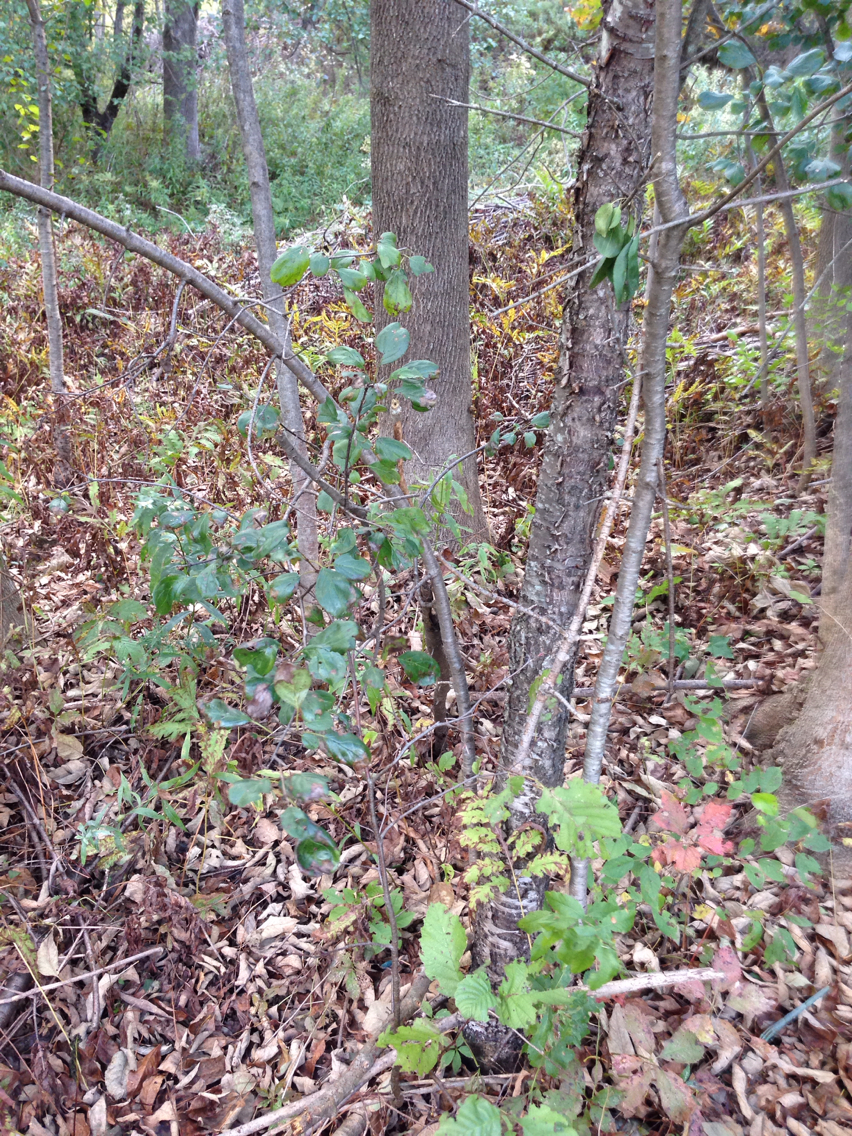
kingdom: Plantae
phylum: Tracheophyta
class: Magnoliopsida
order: Rosales
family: Rhamnaceae
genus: Rhamnus
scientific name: Rhamnus cathartica
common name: Common buckthorn
